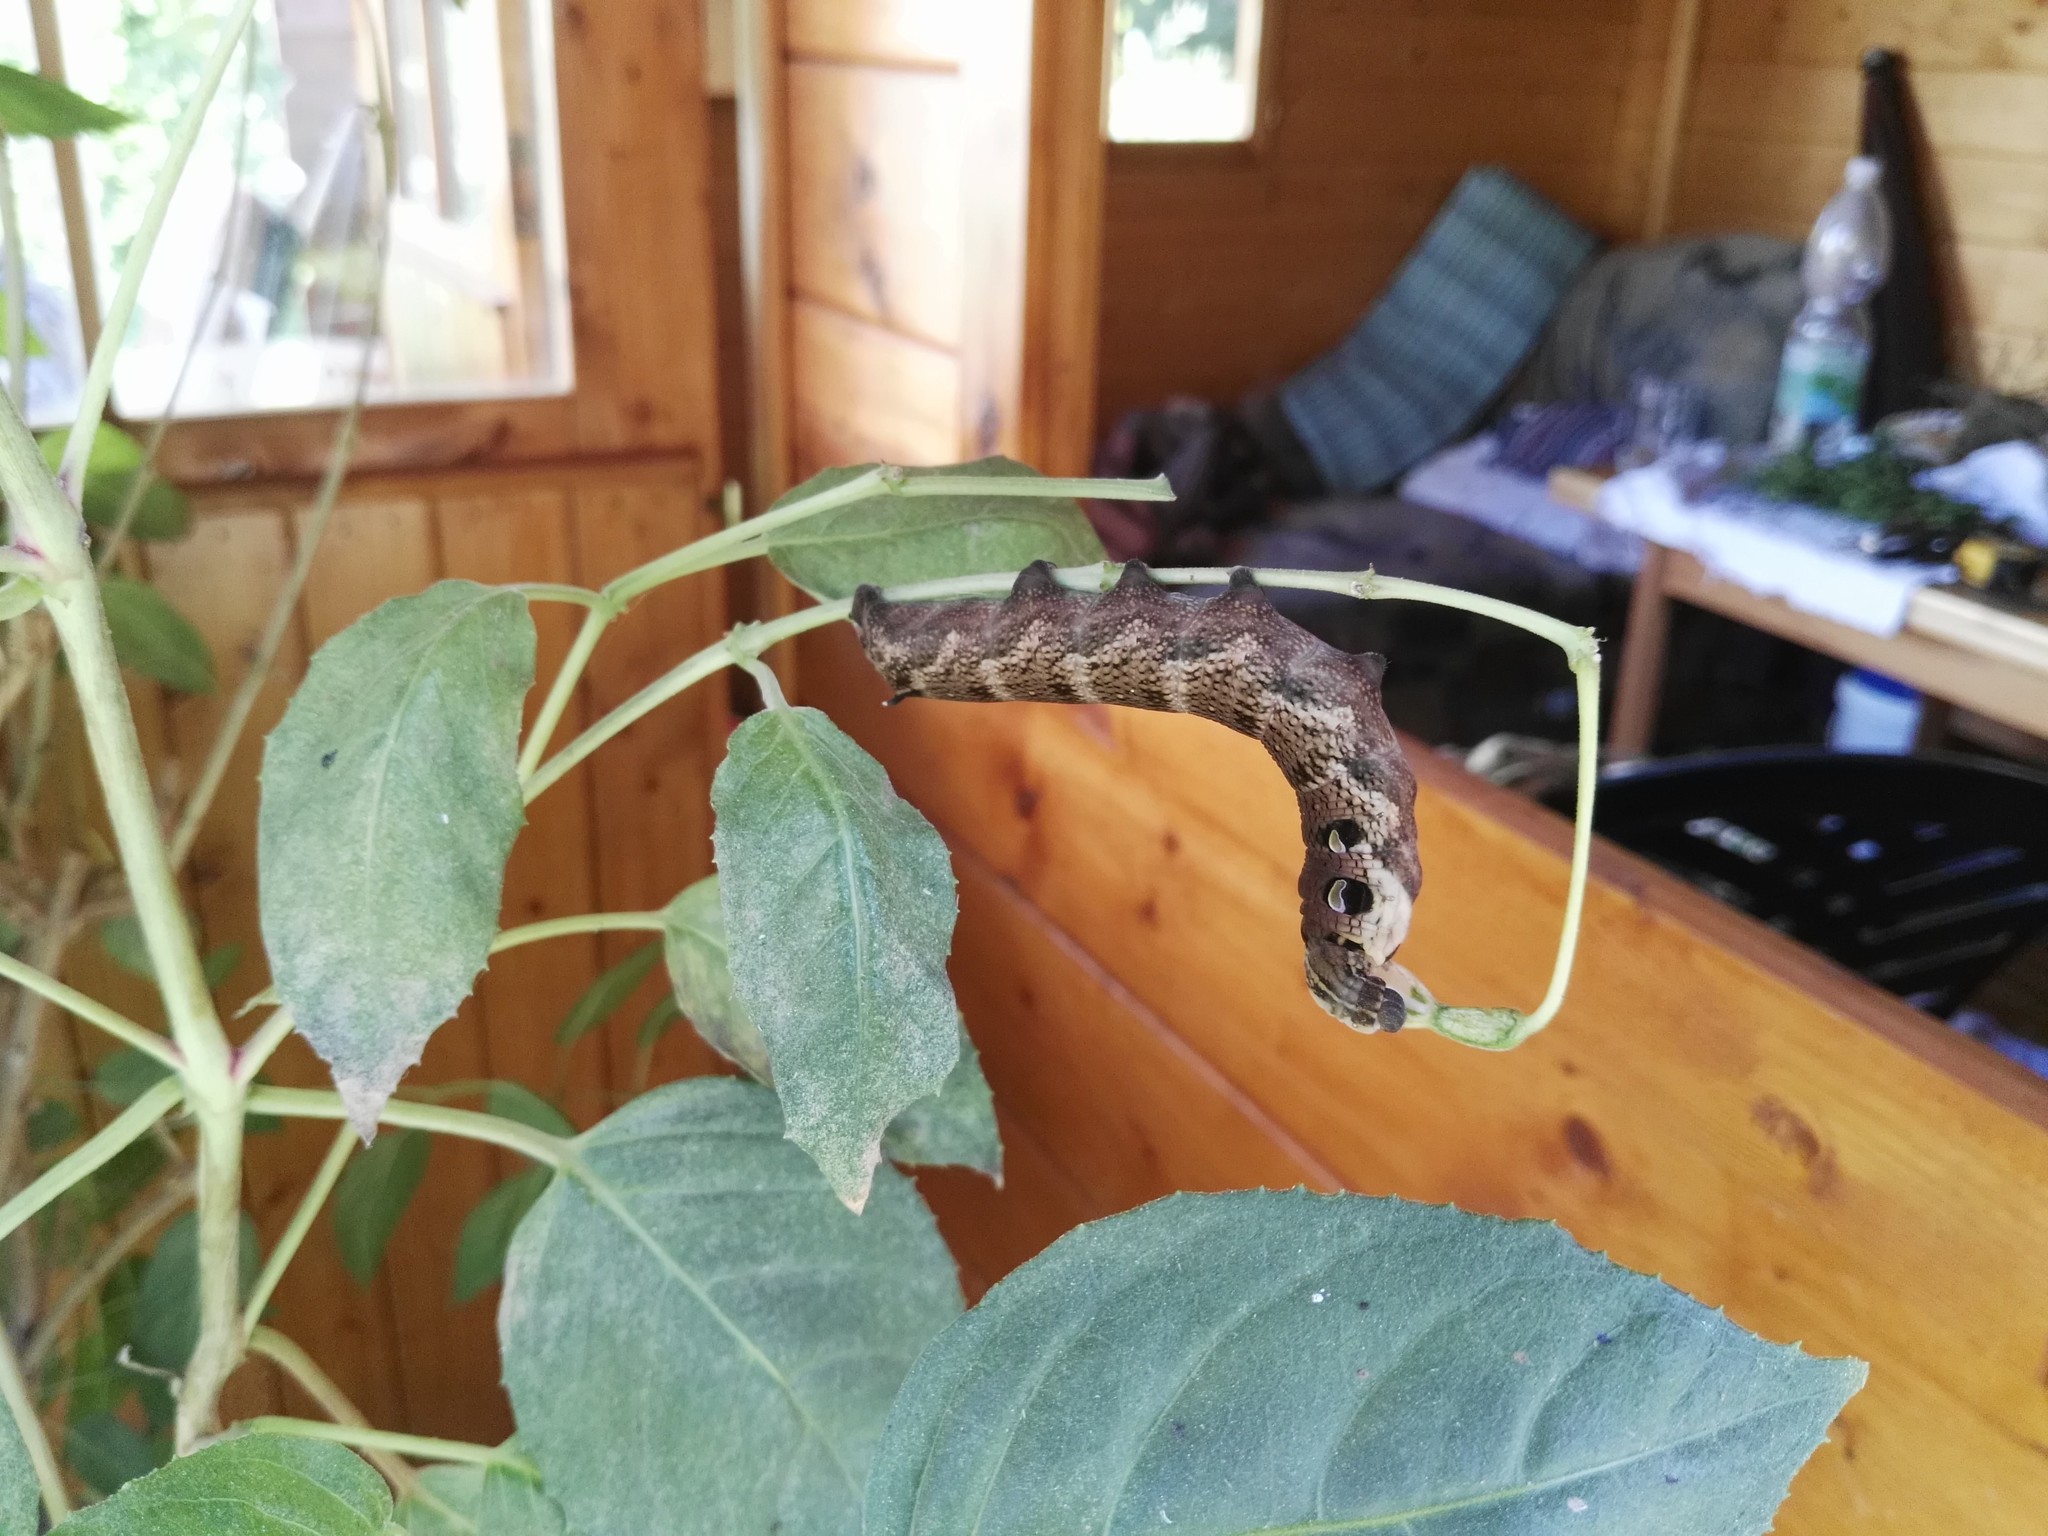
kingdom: Animalia
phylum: Arthropoda
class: Insecta
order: Lepidoptera
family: Sphingidae
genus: Deilephila
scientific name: Deilephila elpenor
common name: Elephant hawk-moth
